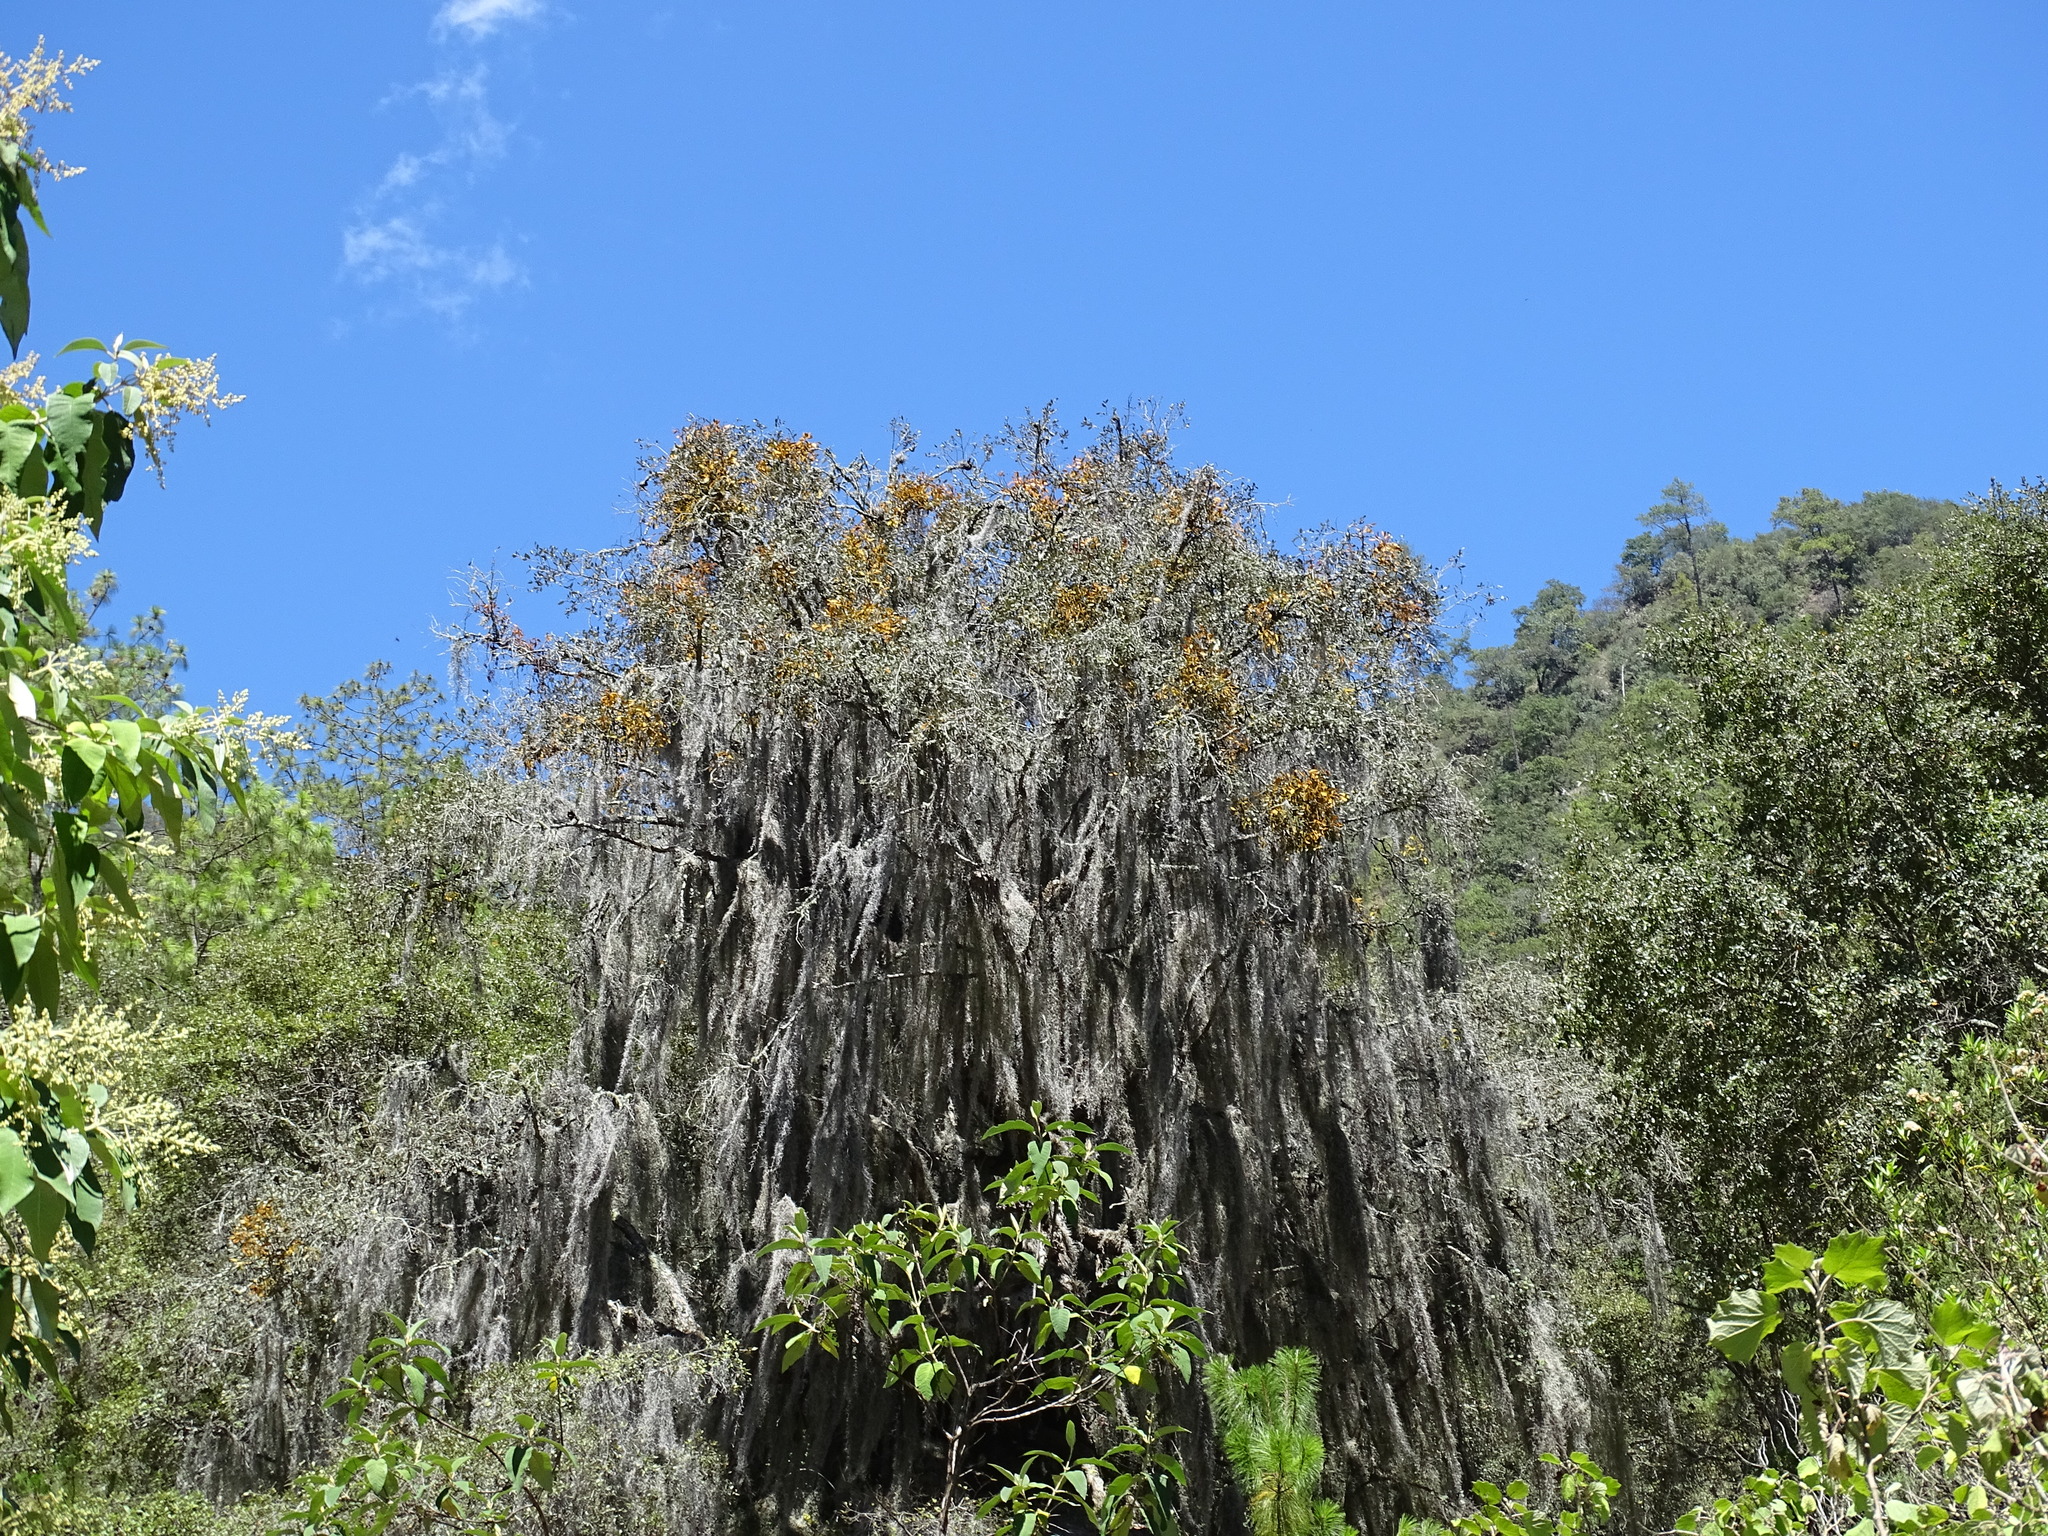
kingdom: Plantae
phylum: Tracheophyta
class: Liliopsida
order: Poales
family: Bromeliaceae
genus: Tillandsia
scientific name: Tillandsia usneoides
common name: Spanish moss
